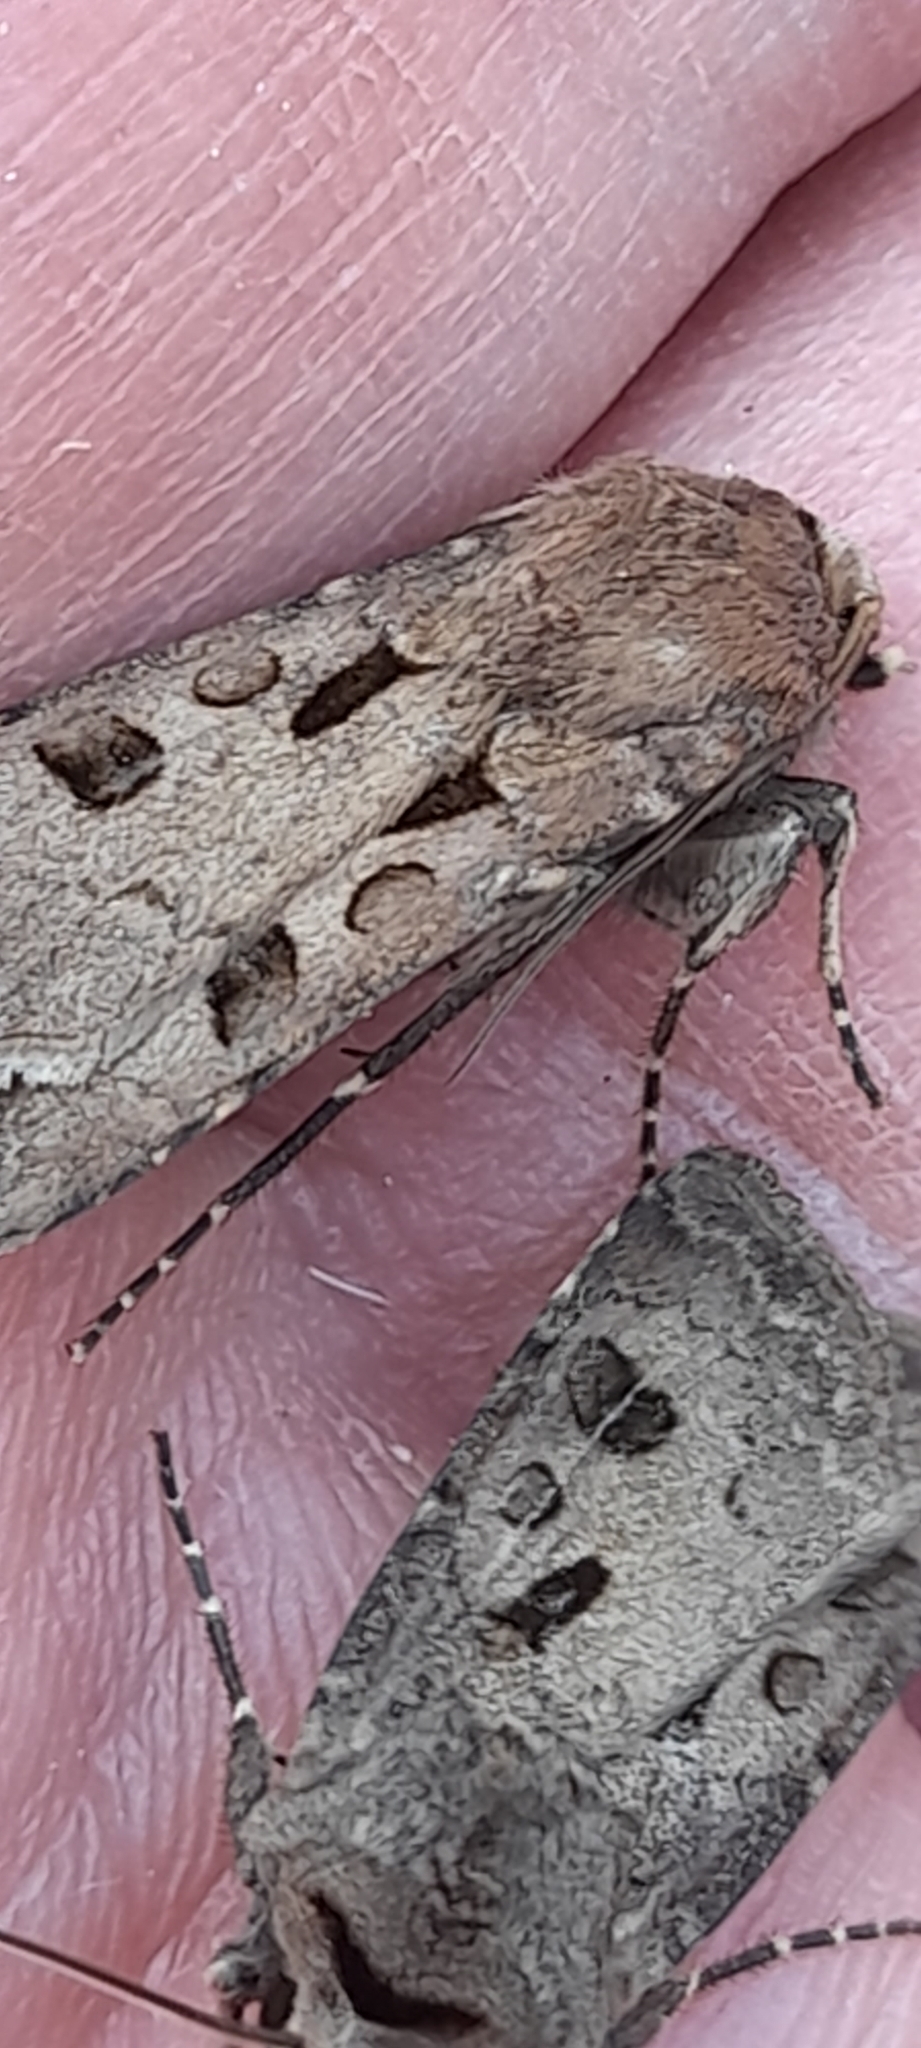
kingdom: Animalia
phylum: Arthropoda
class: Insecta
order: Lepidoptera
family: Noctuidae
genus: Agrotis
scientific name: Agrotis exclamationis
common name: Heart and dart
